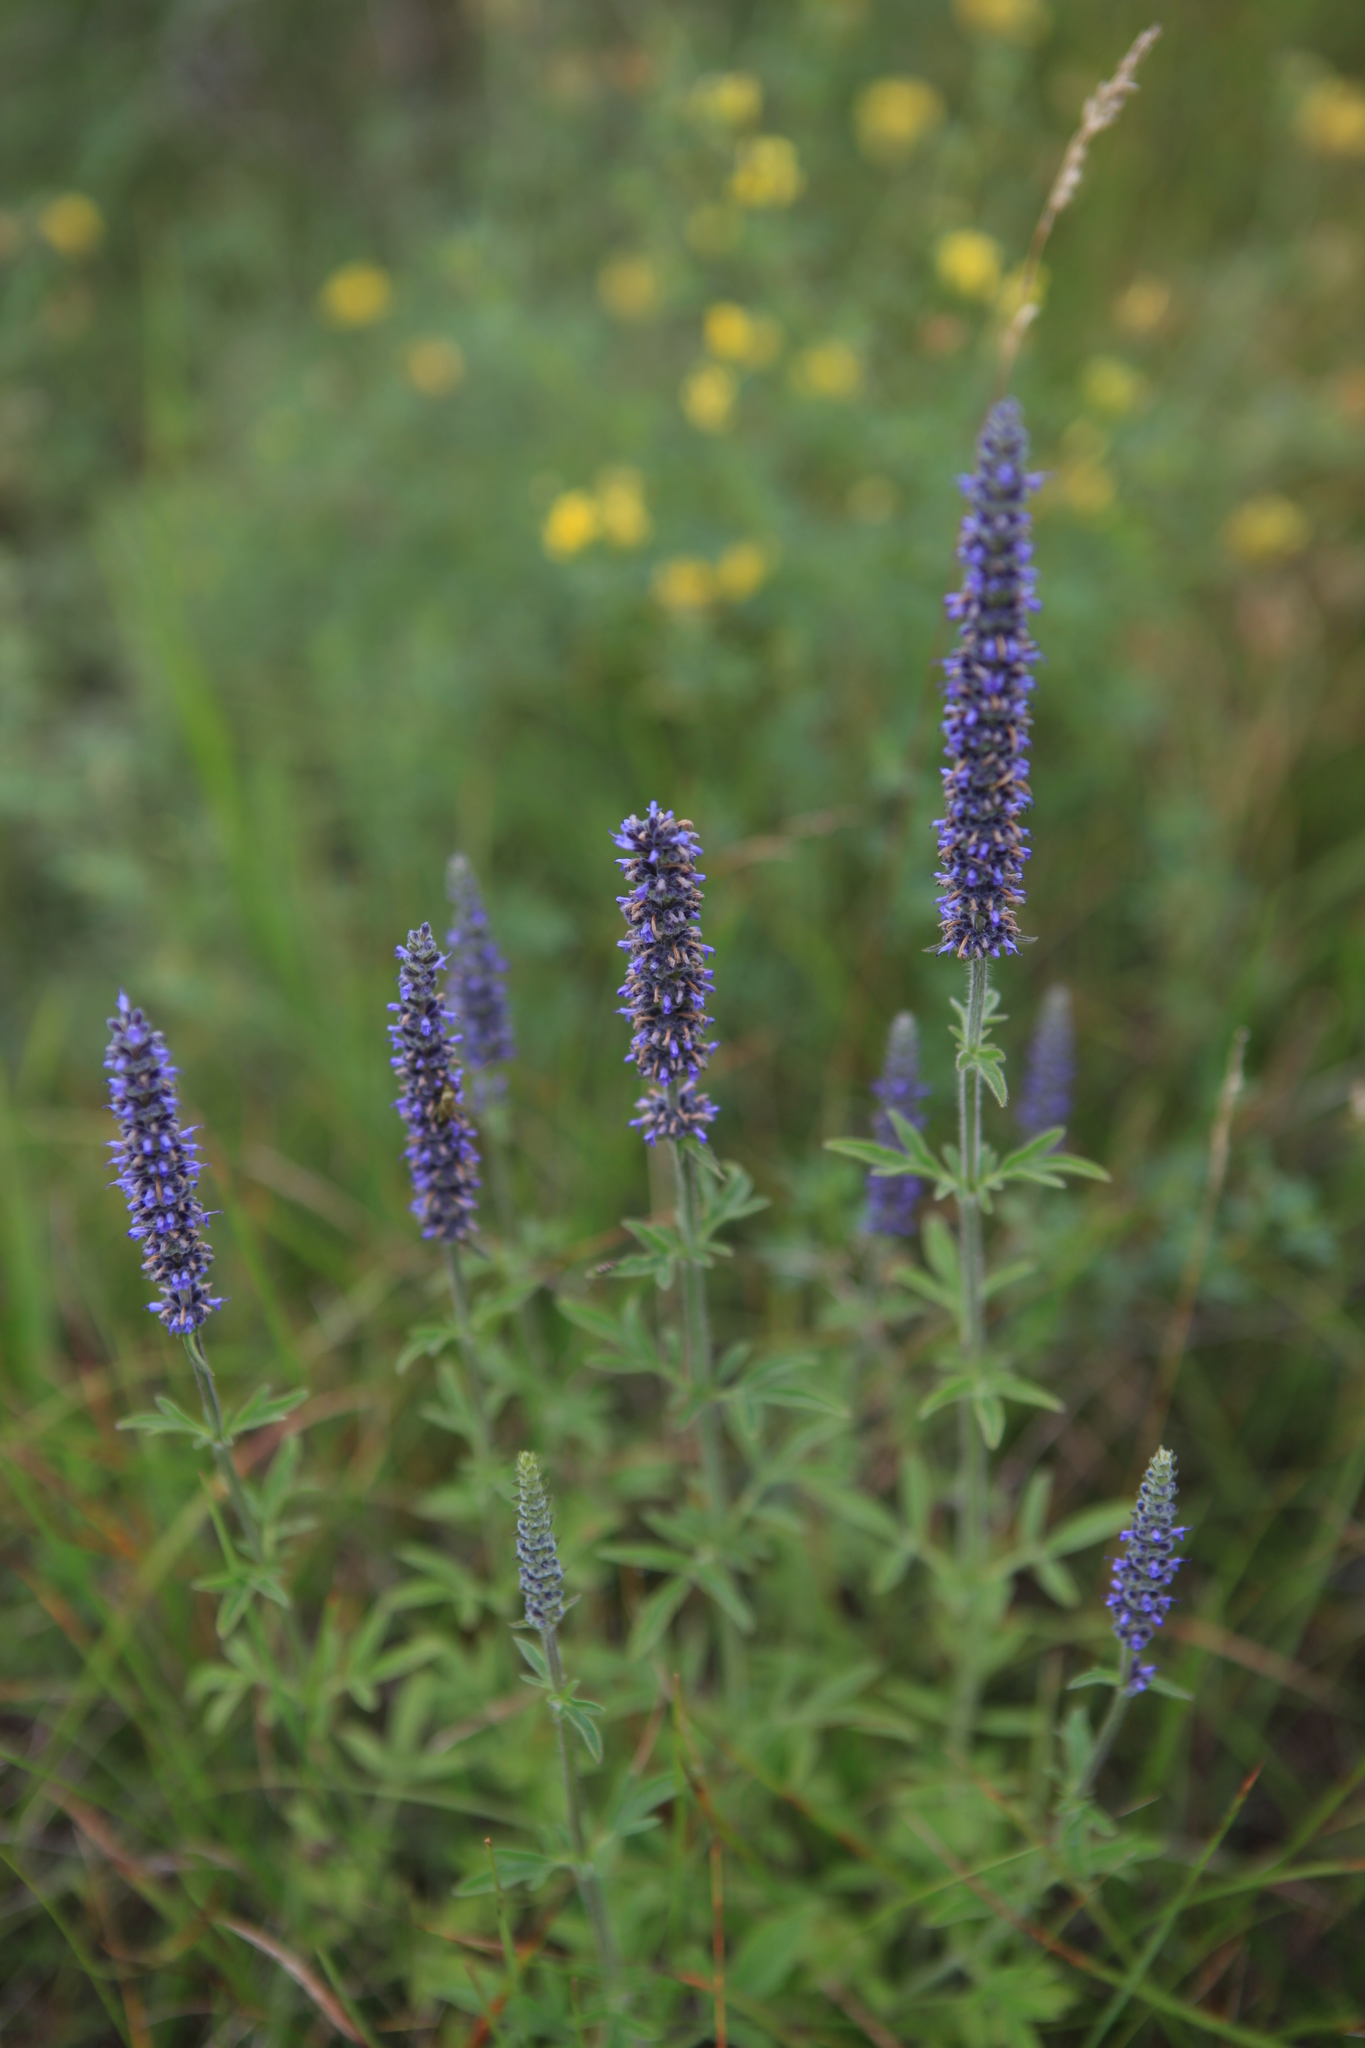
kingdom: Plantae
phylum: Tracheophyta
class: Magnoliopsida
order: Lamiales
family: Lamiaceae
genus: Nepeta
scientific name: Nepeta multifida
